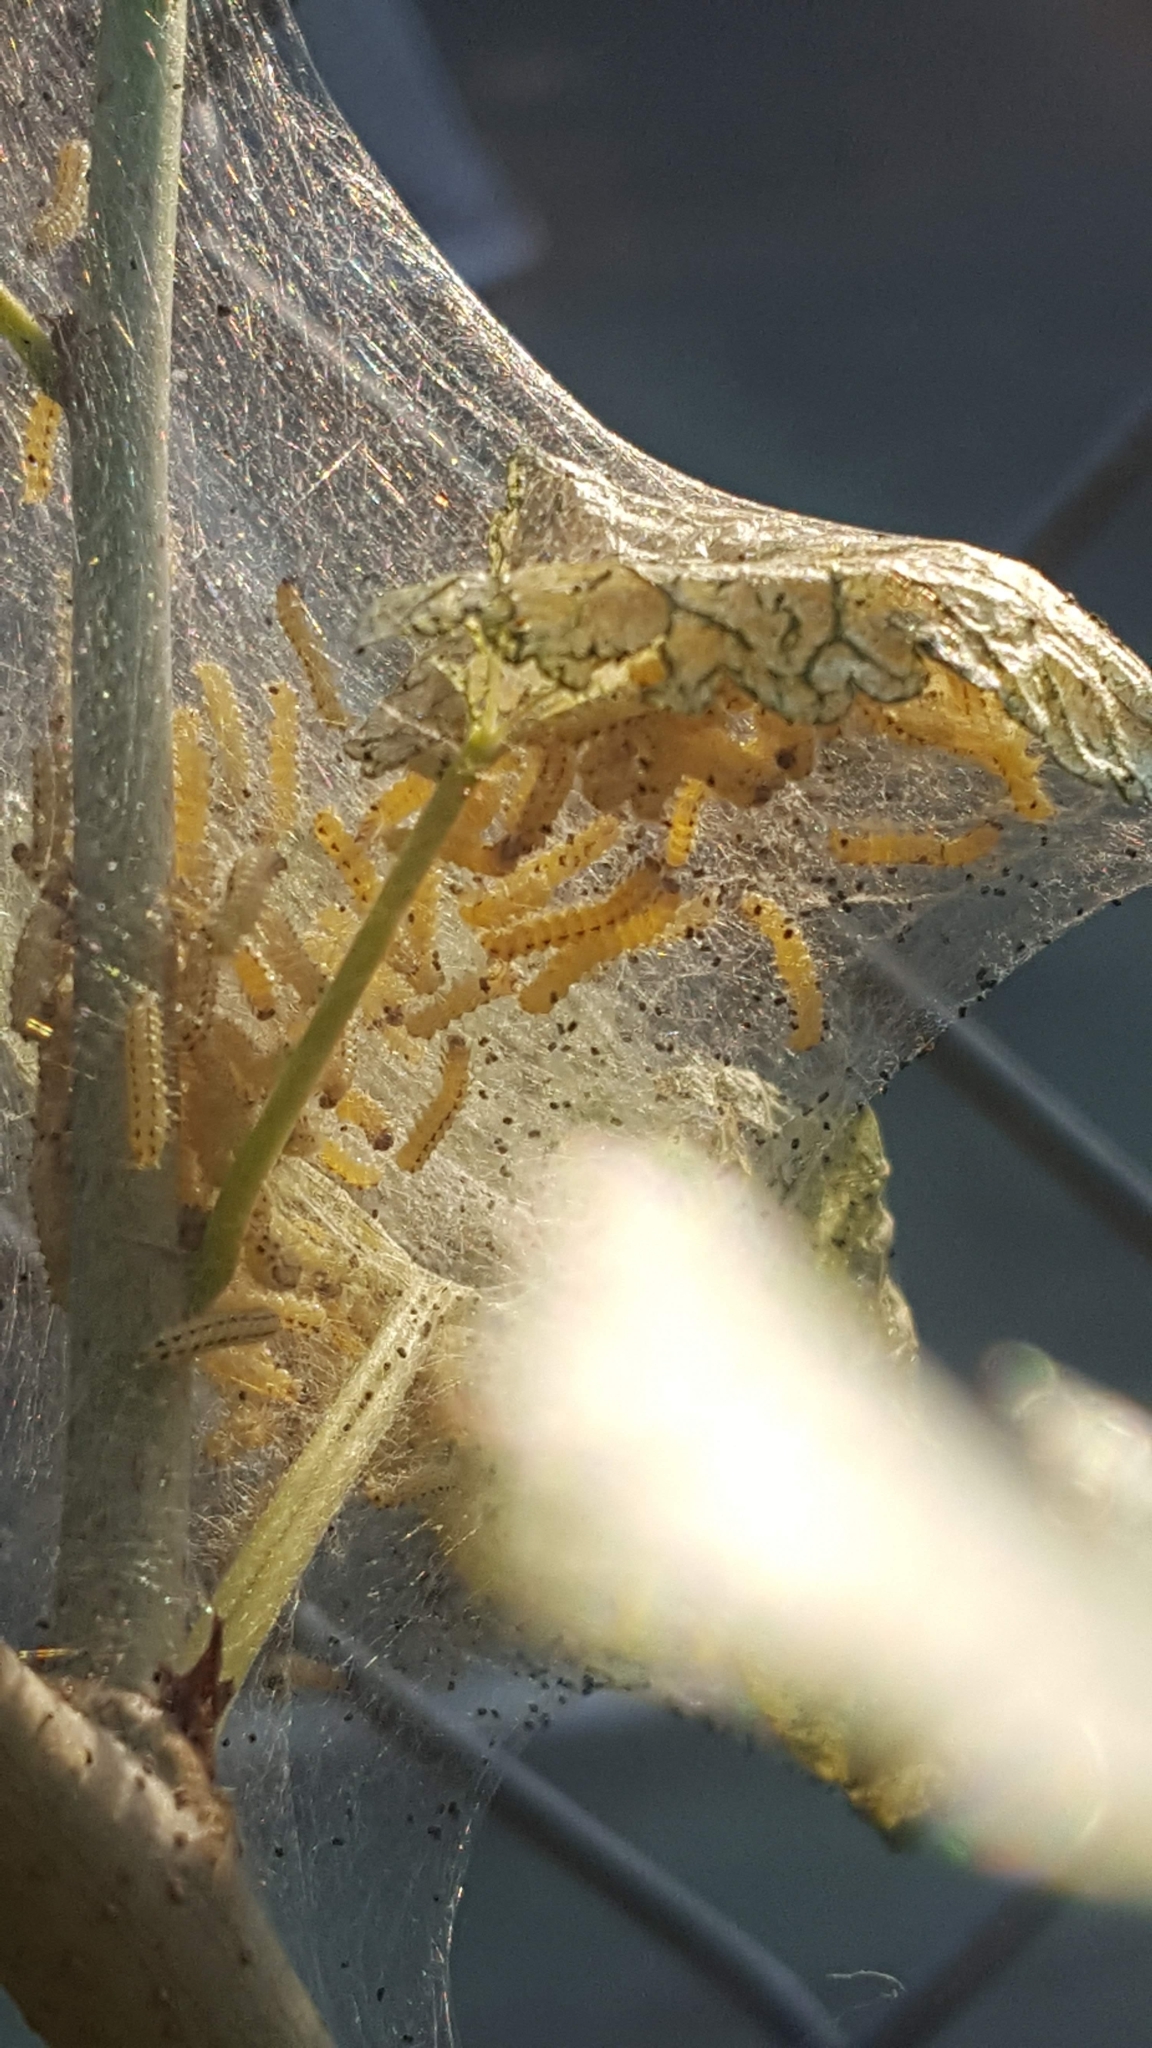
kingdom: Animalia
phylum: Arthropoda
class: Insecta
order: Lepidoptera
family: Erebidae
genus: Hyphantria
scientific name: Hyphantria cunea
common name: American white moth
